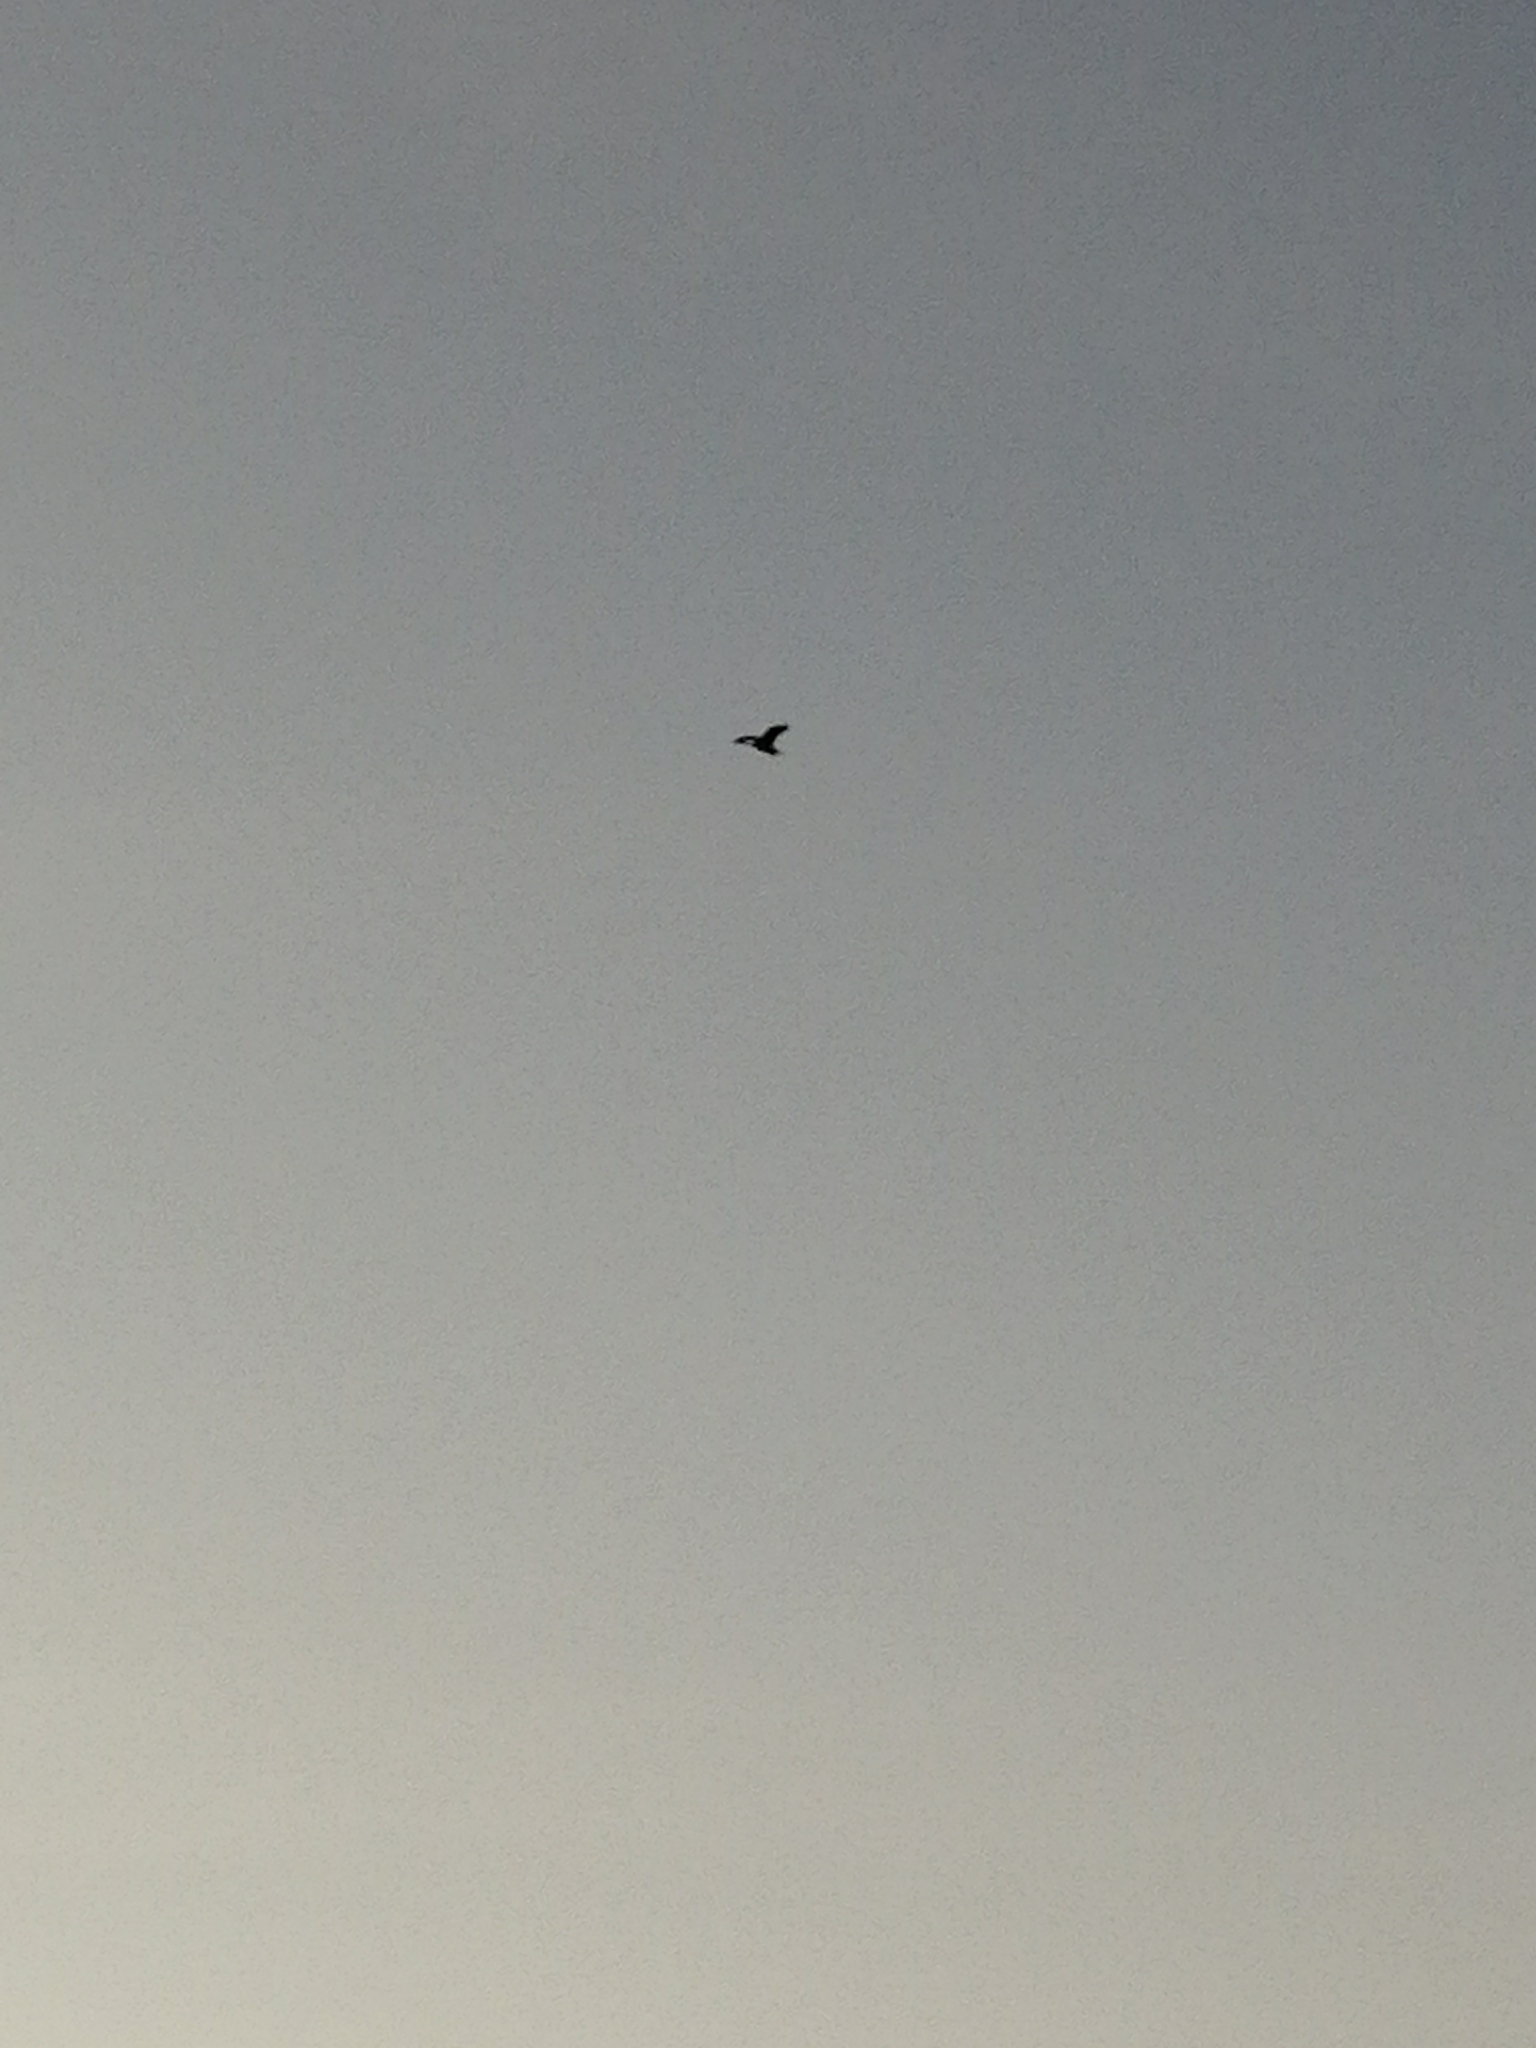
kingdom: Animalia
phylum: Chordata
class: Aves
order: Pelecaniformes
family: Ardeidae
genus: Ardea
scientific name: Ardea cinerea
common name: Grey heron
